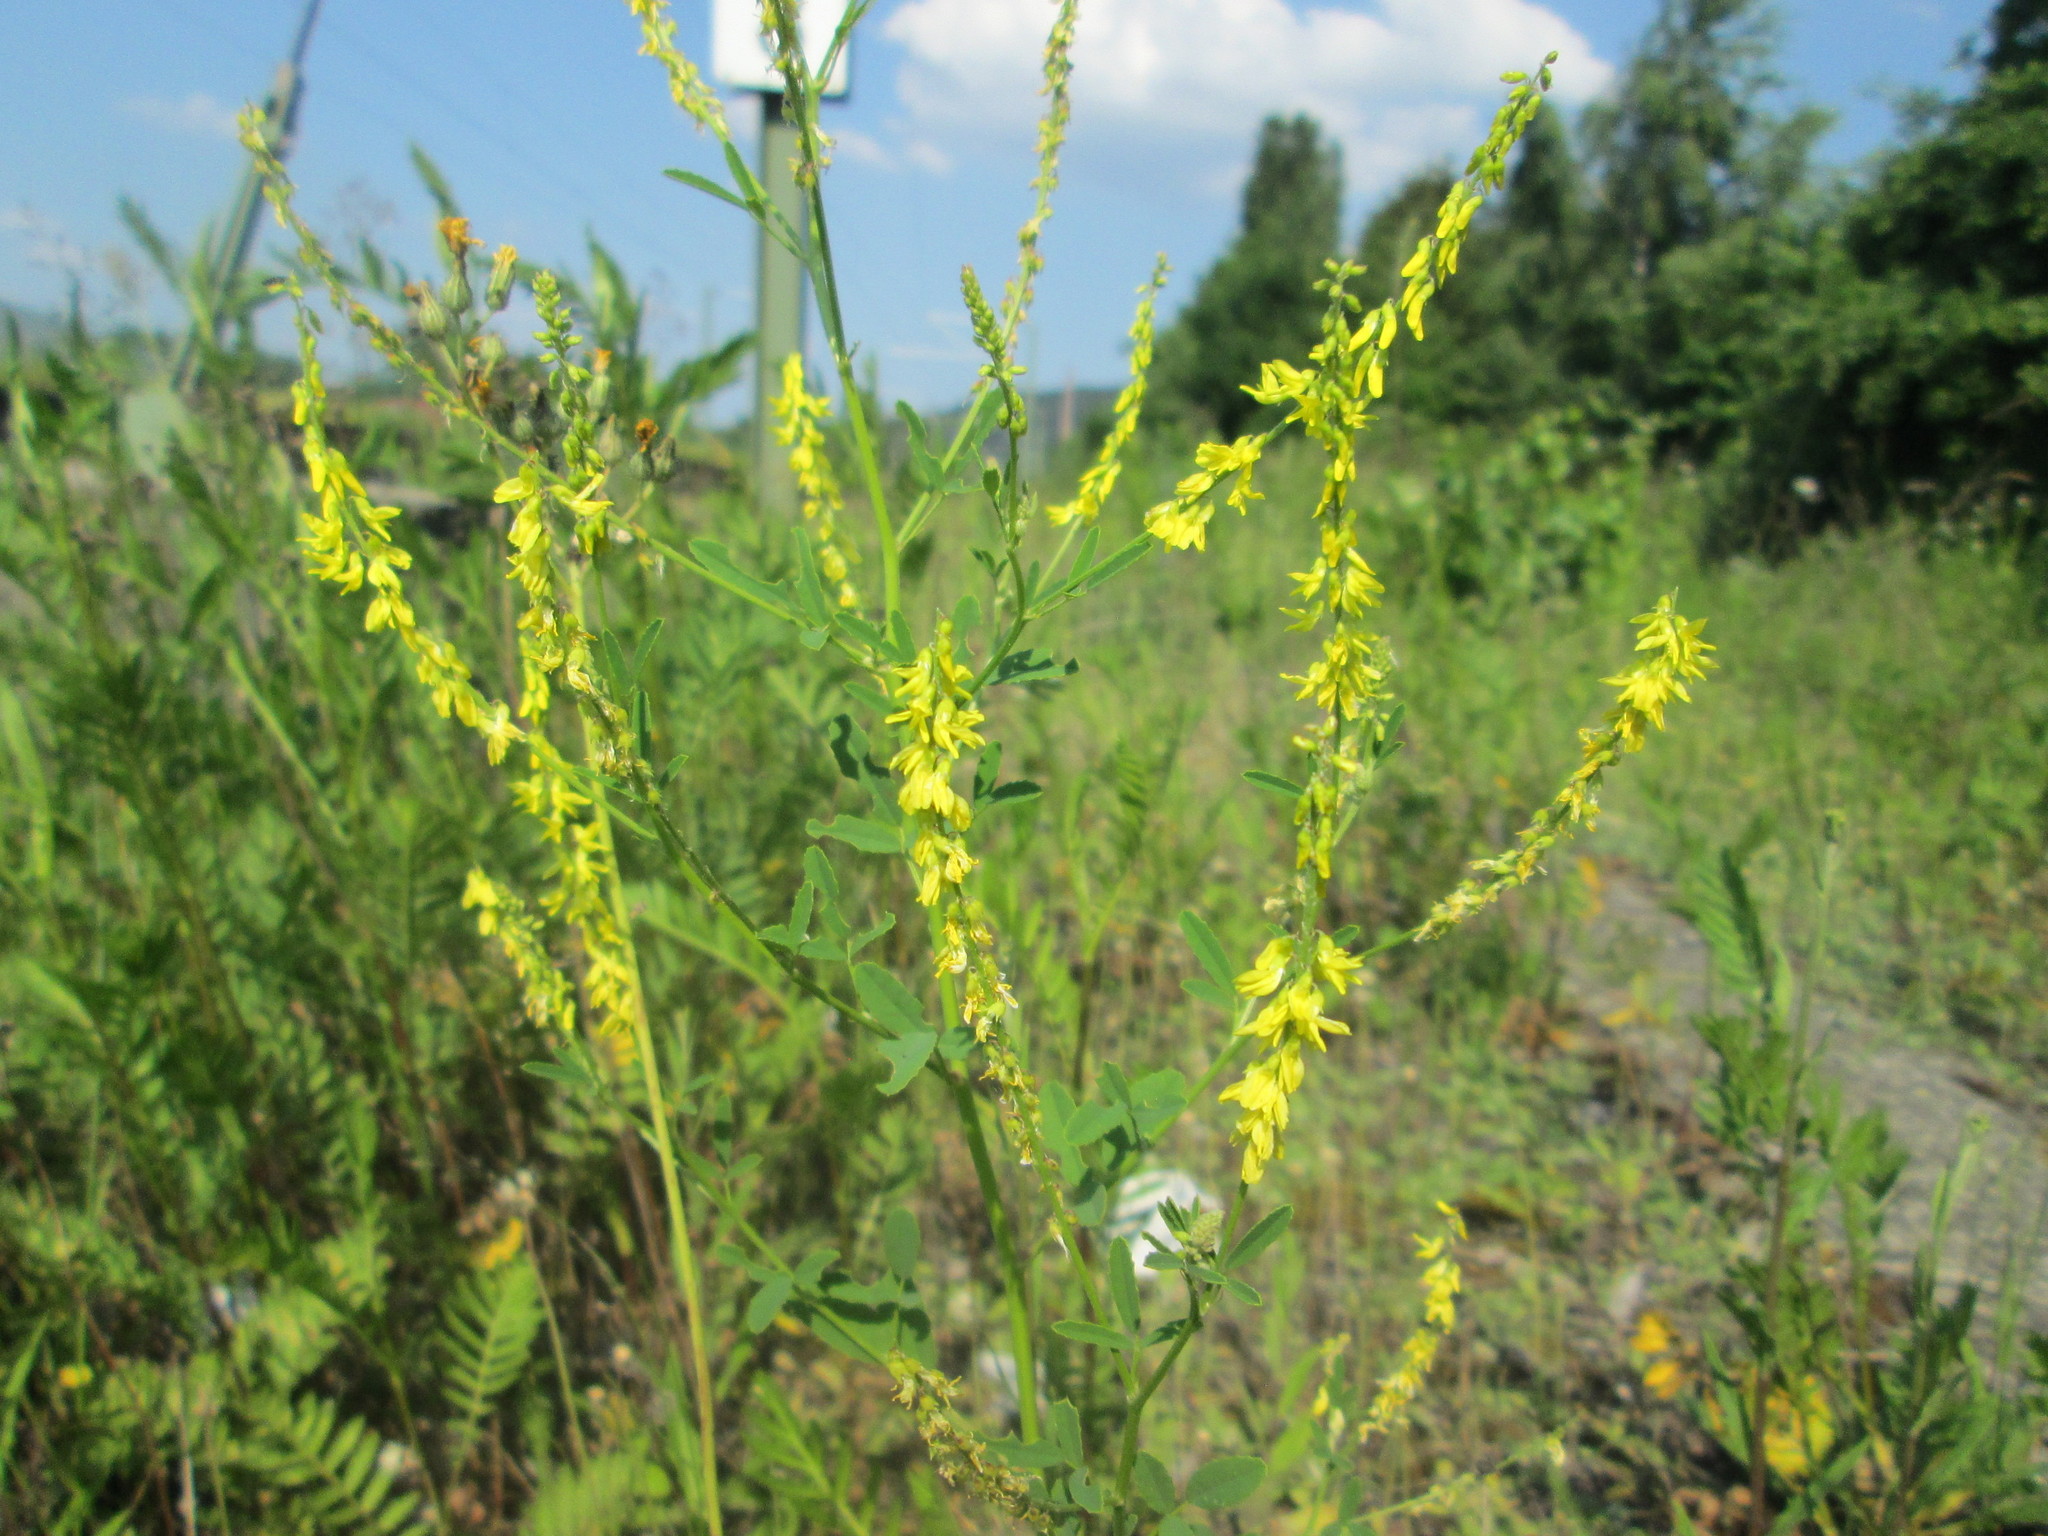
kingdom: Plantae
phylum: Tracheophyta
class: Magnoliopsida
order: Fabales
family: Fabaceae
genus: Melilotus
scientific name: Melilotus officinalis
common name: Sweetclover
